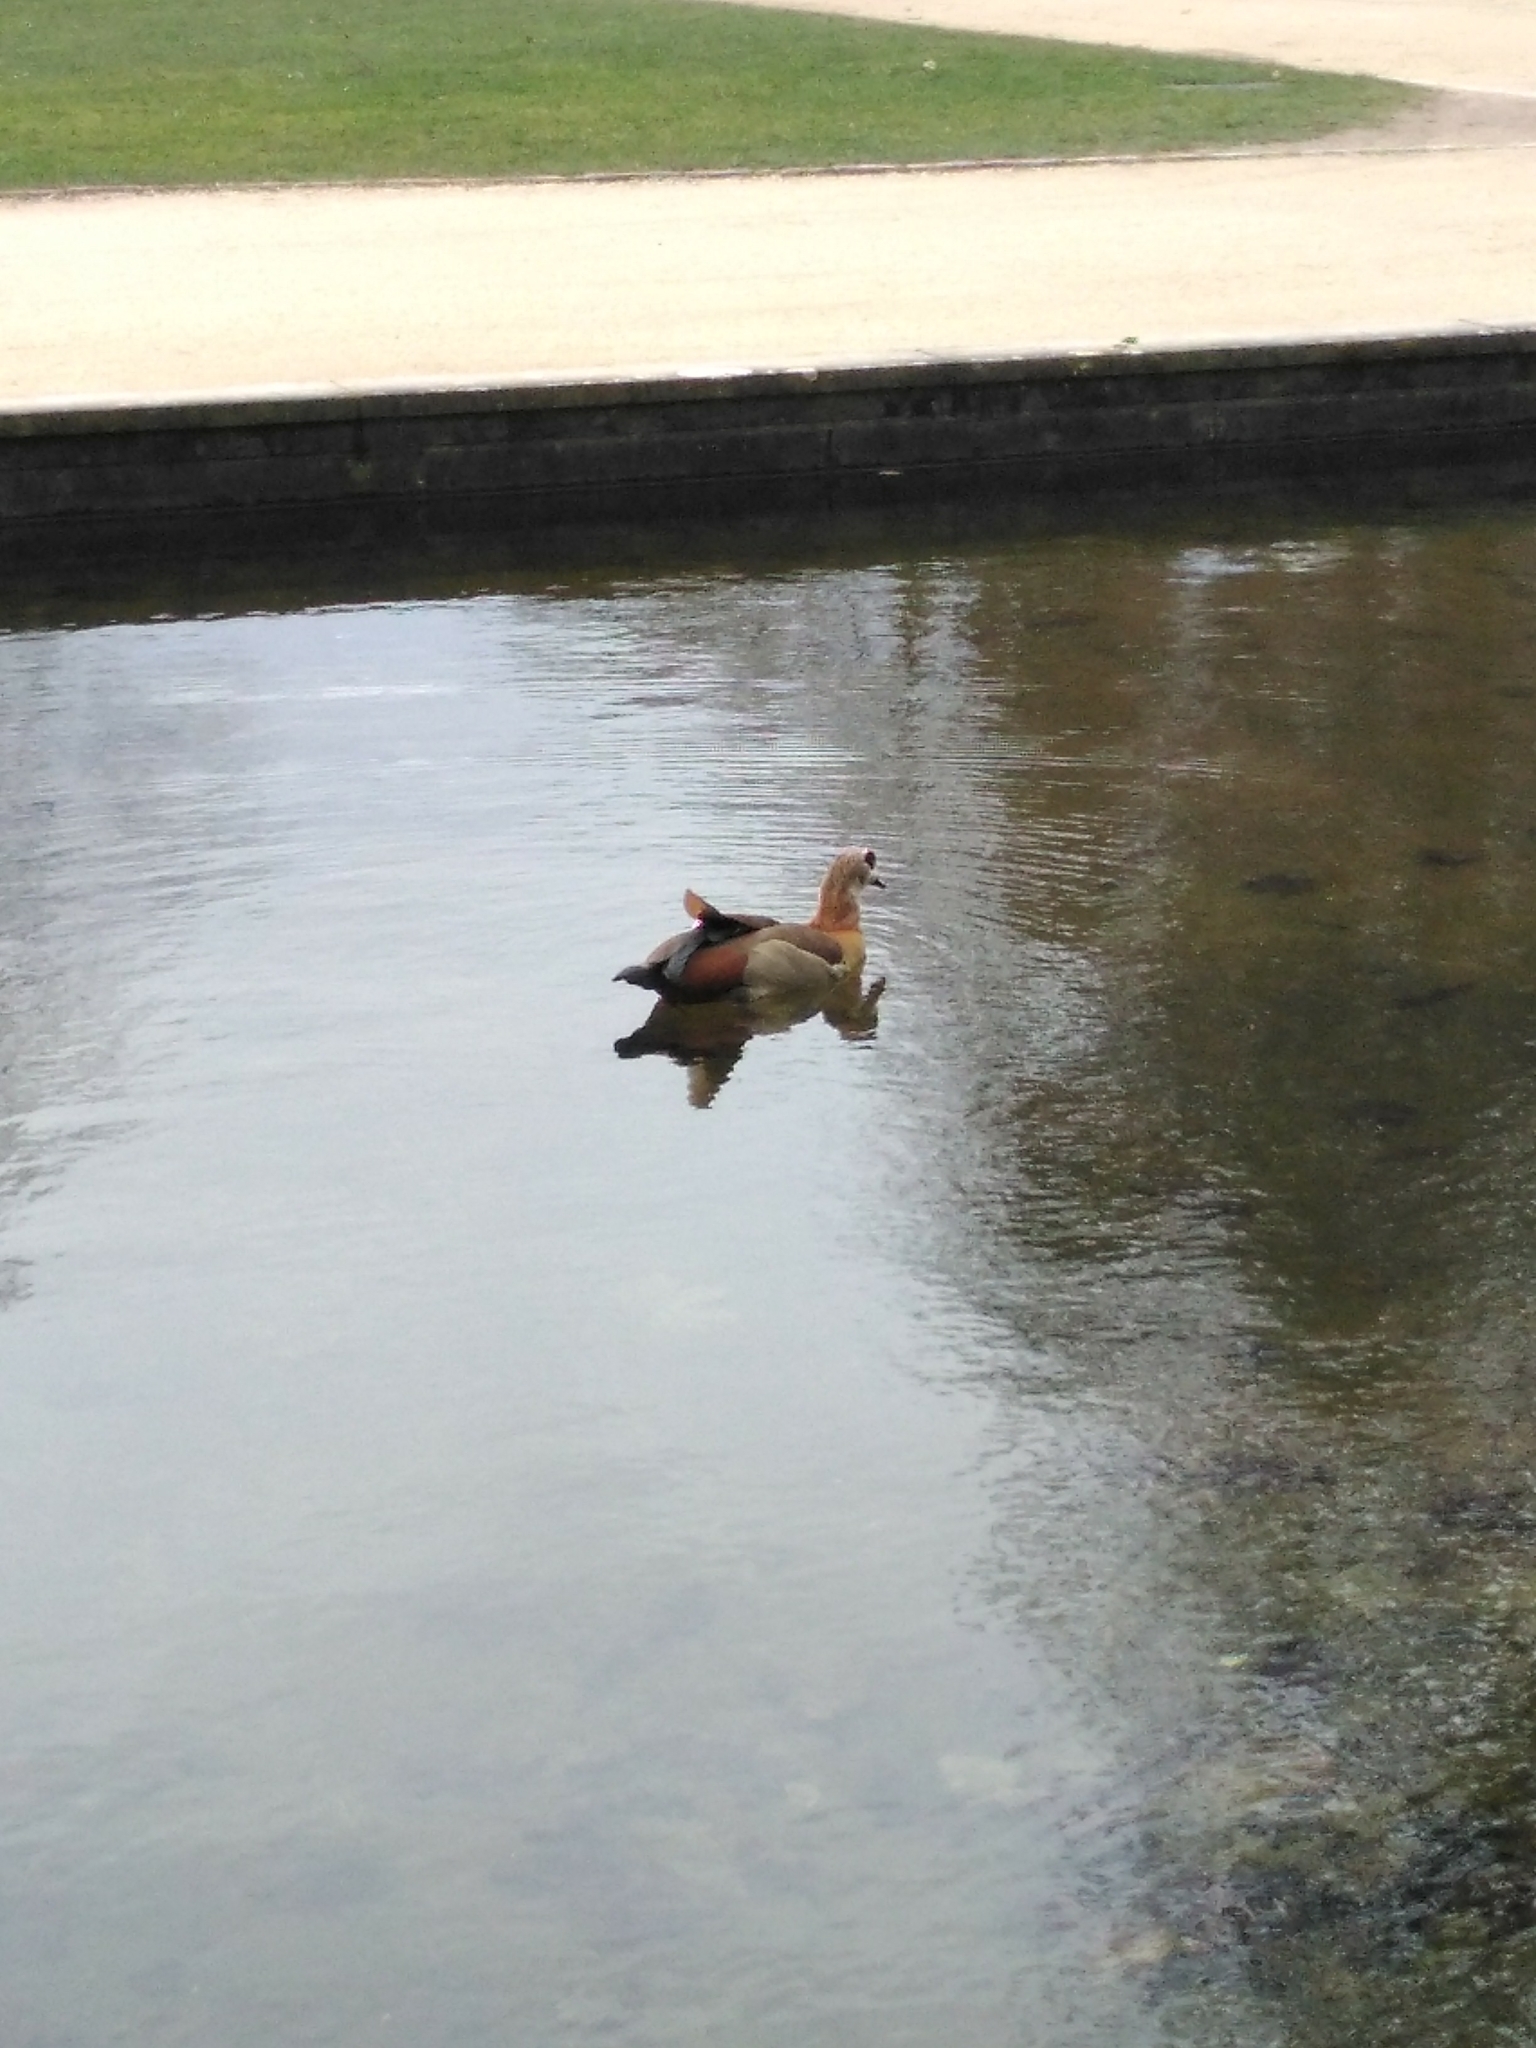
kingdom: Animalia
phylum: Chordata
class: Aves
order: Anseriformes
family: Anatidae
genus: Alopochen
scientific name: Alopochen aegyptiaca
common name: Egyptian goose
